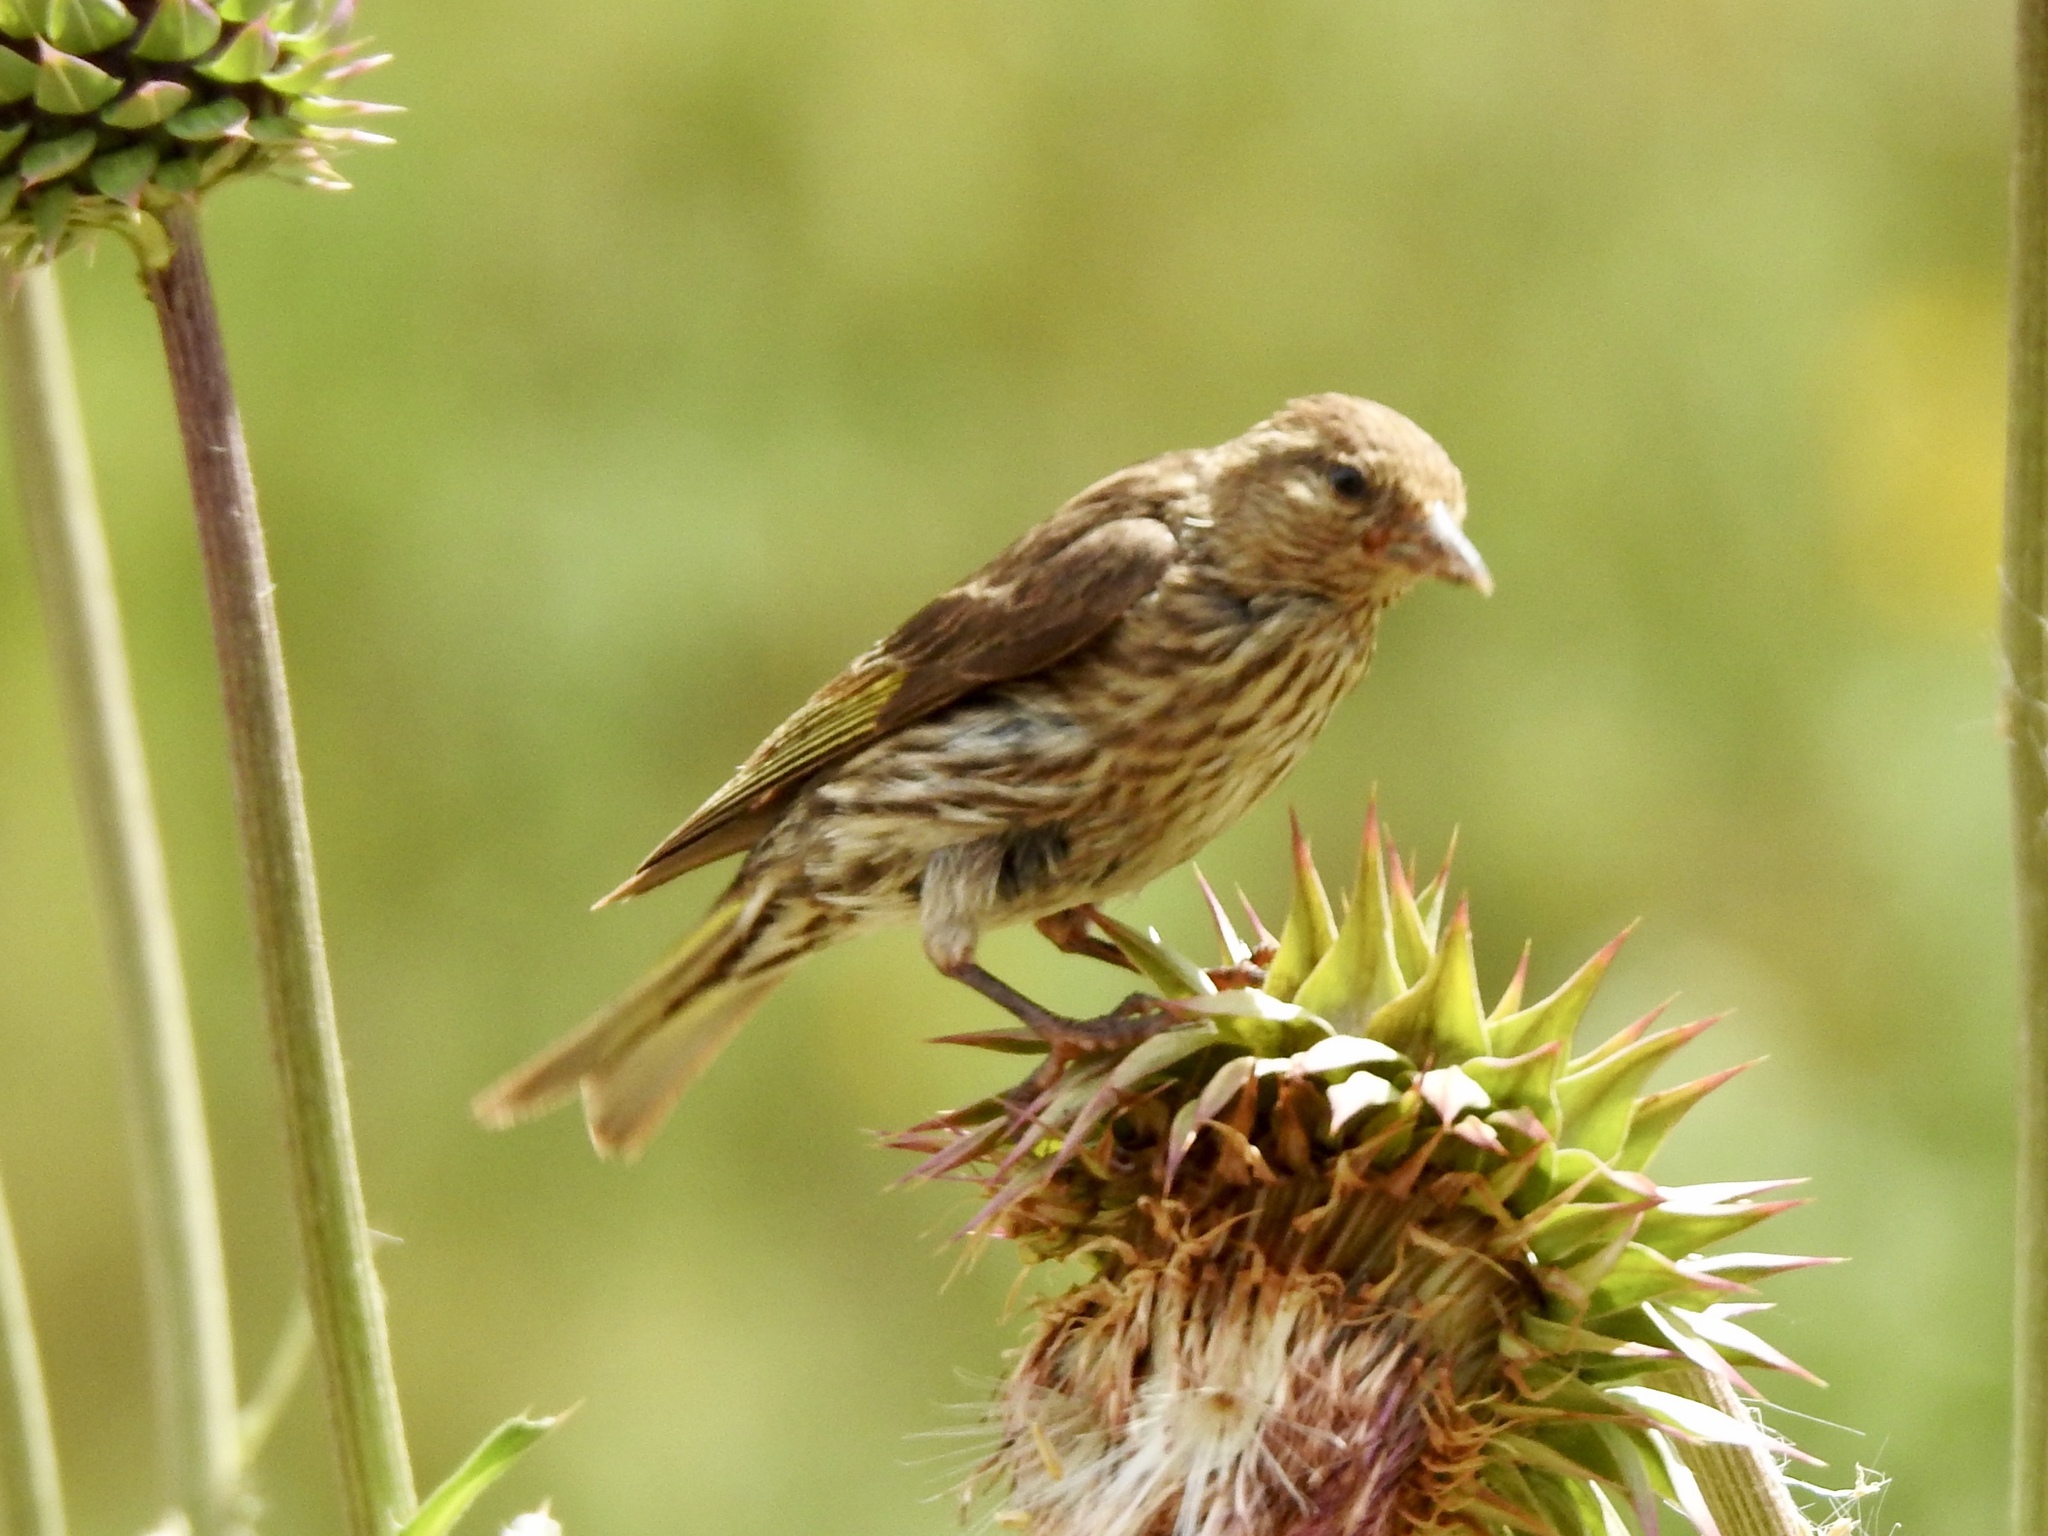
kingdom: Animalia
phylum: Chordata
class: Aves
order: Passeriformes
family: Fringillidae
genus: Spinus
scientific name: Spinus pinus
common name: Pine siskin
